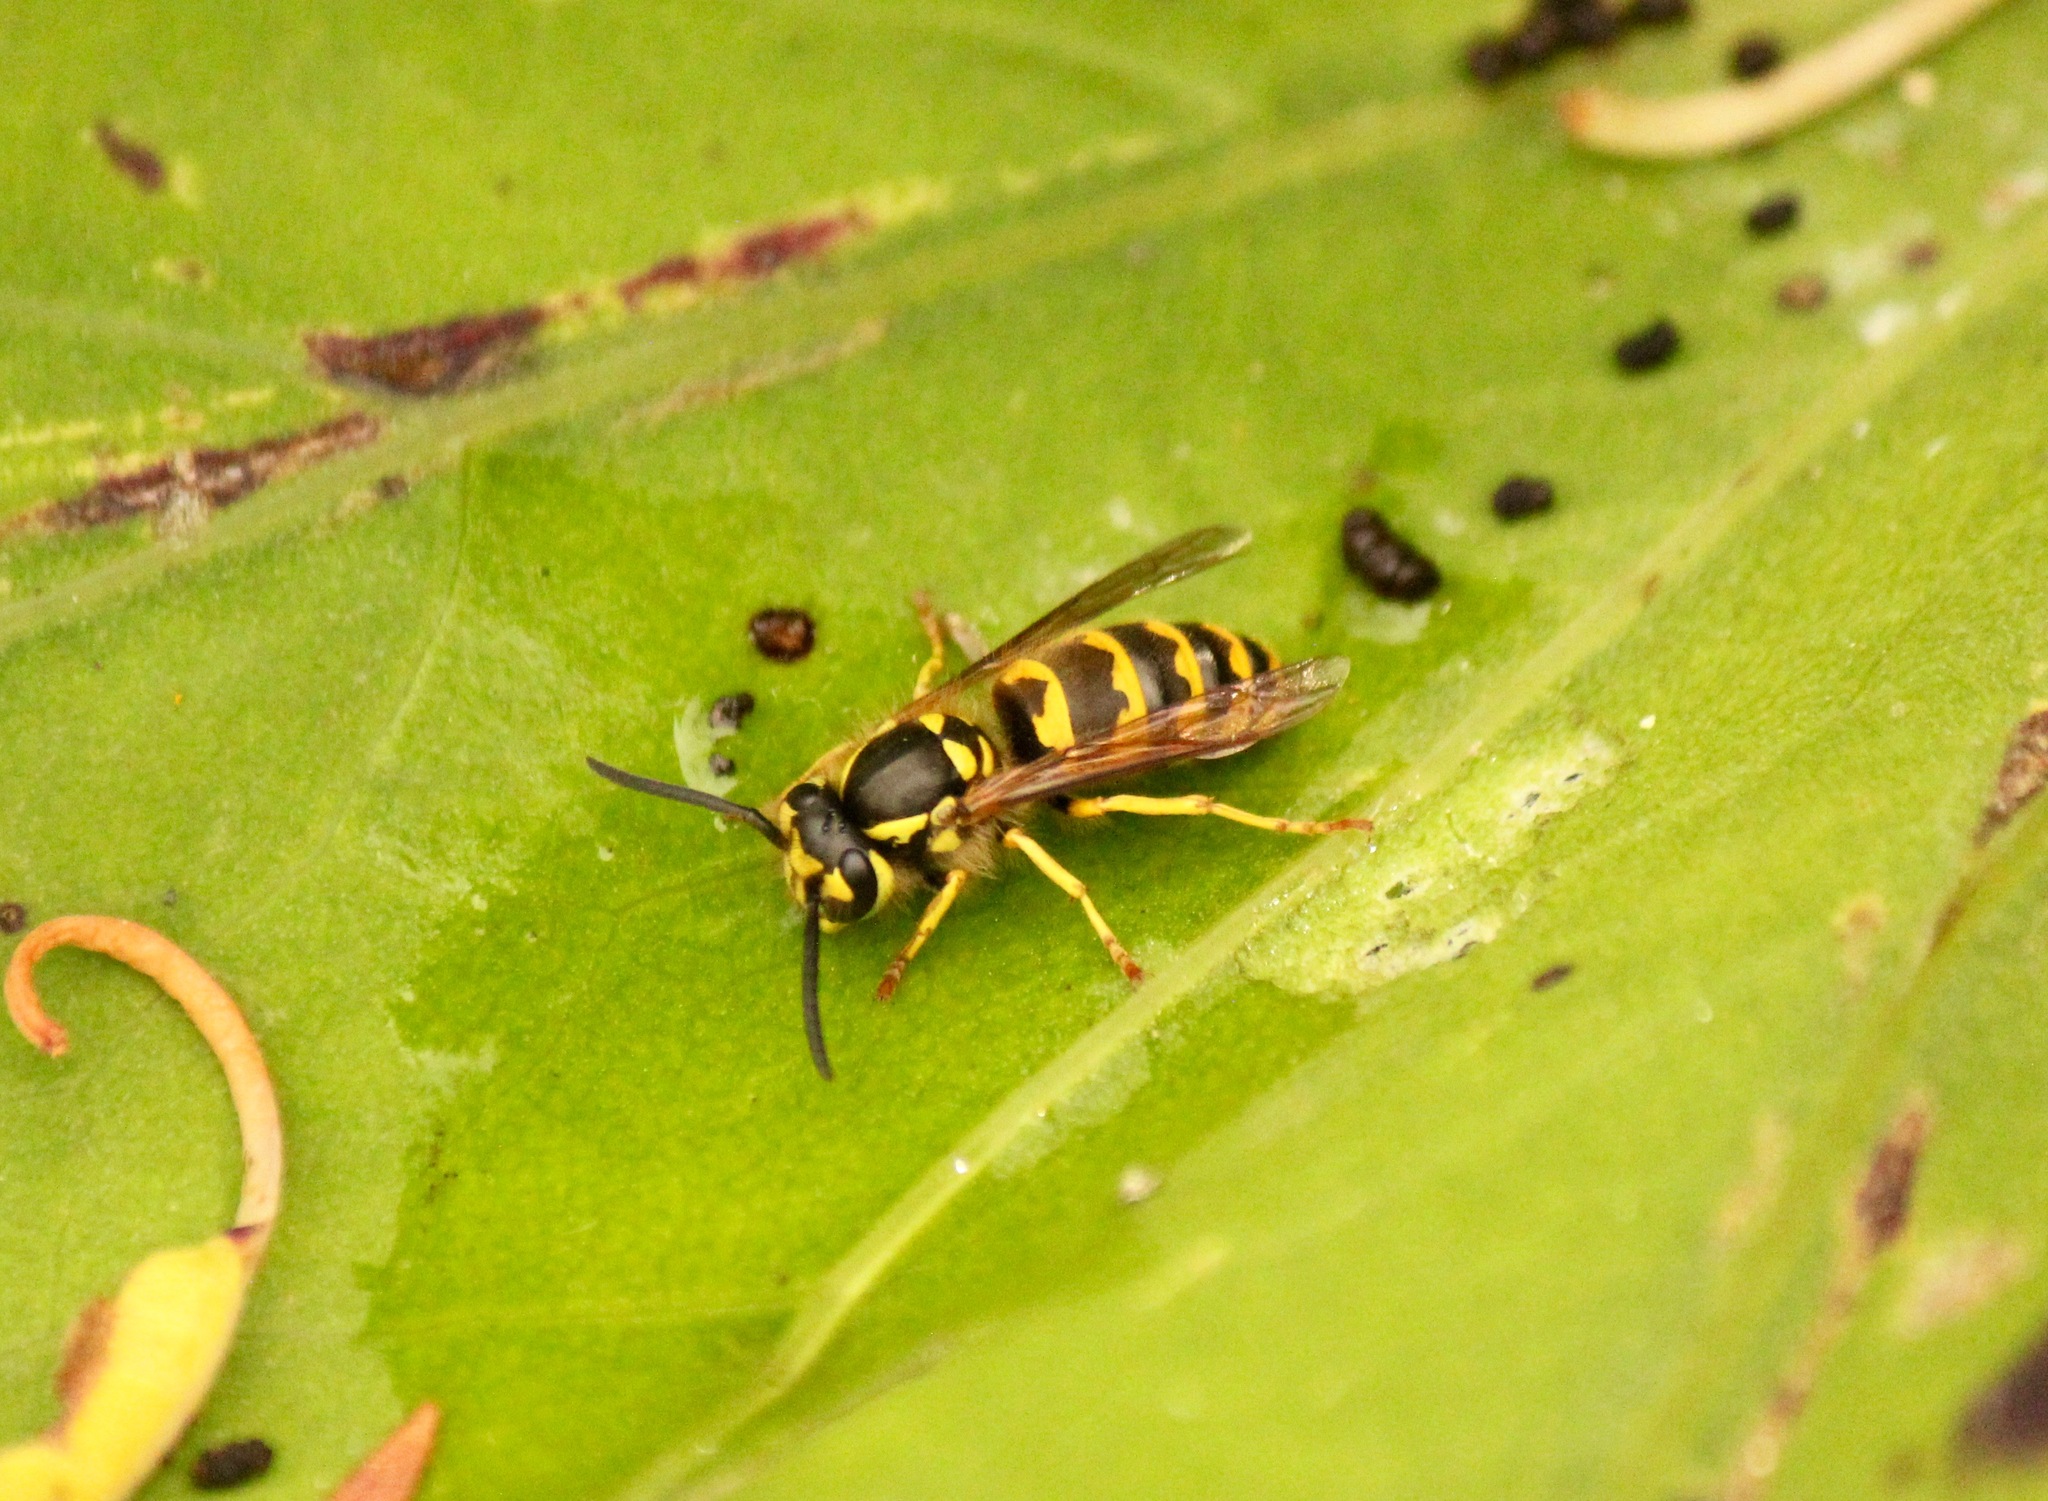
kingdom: Animalia
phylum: Arthropoda
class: Insecta
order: Hymenoptera
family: Vespidae
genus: Vespula
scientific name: Vespula flavopilosa
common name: Downy yellowjacket
